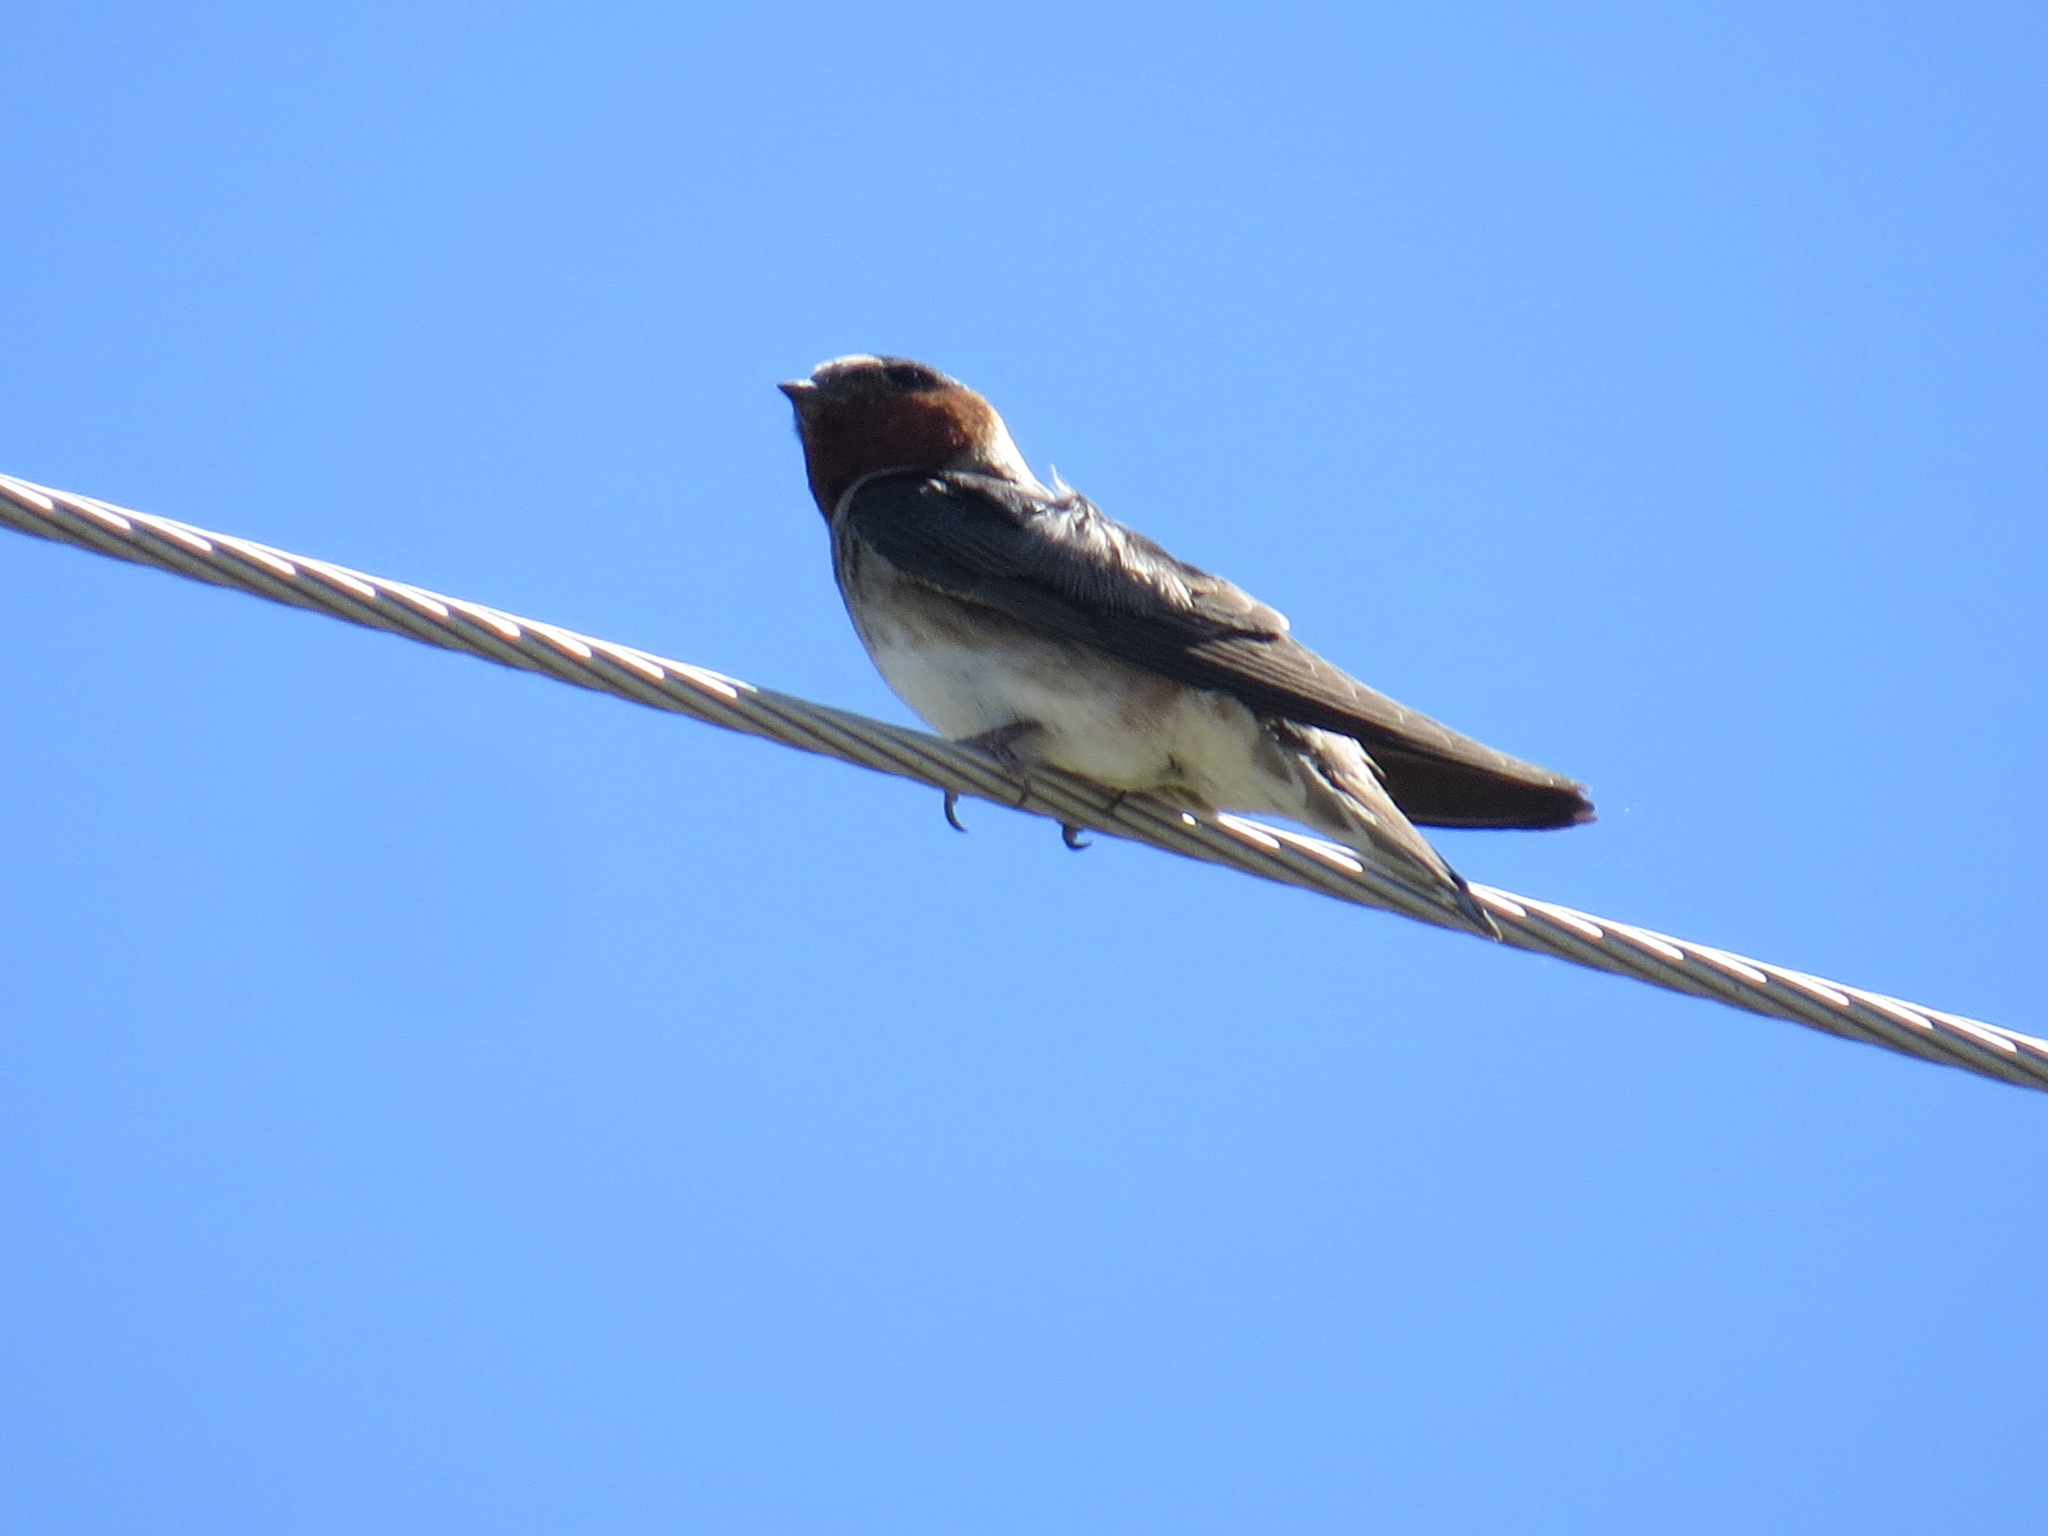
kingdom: Animalia
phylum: Chordata
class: Aves
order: Passeriformes
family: Hirundinidae
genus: Petrochelidon
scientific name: Petrochelidon pyrrhonota
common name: American cliff swallow
